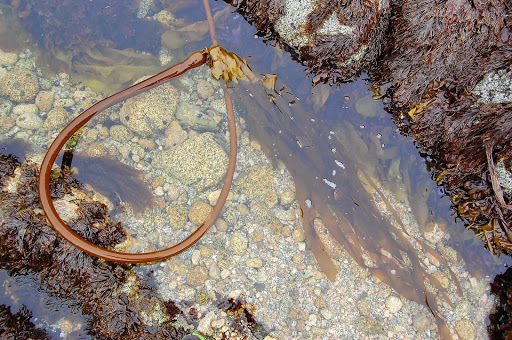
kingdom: Chromista
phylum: Ochrophyta
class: Phaeophyceae
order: Laminariales
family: Laminariaceae
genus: Nereocystis
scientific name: Nereocystis luetkeana
